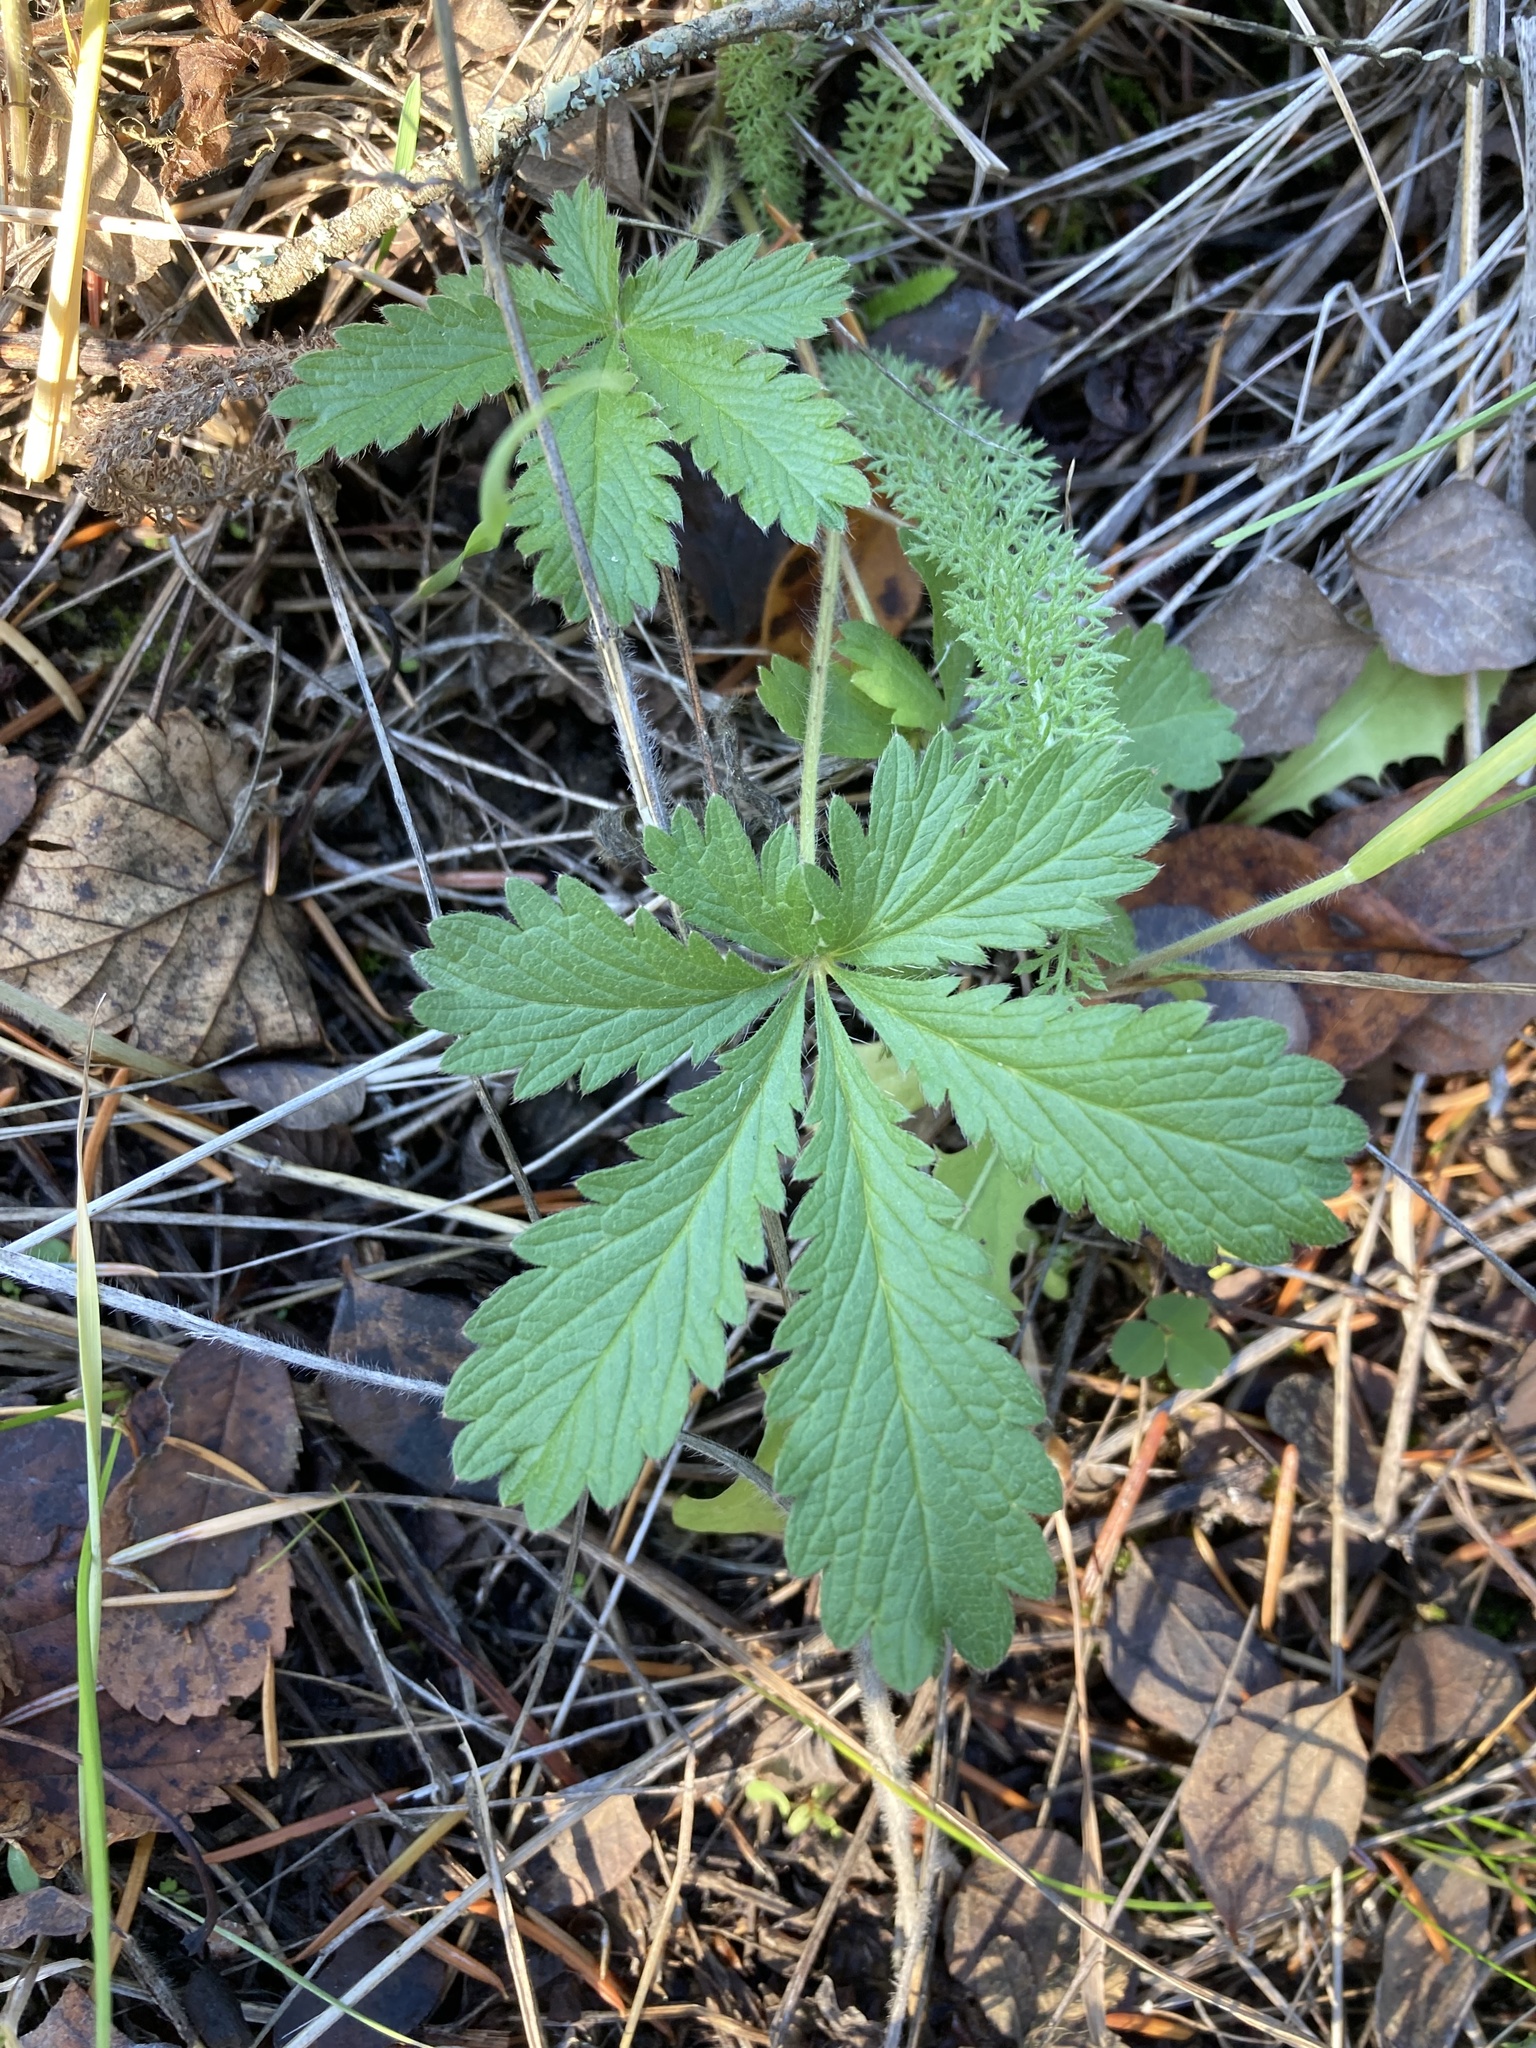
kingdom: Plantae
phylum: Tracheophyta
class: Magnoliopsida
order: Rosales
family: Rosaceae
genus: Potentilla
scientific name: Potentilla recta
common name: Sulphur cinquefoil
